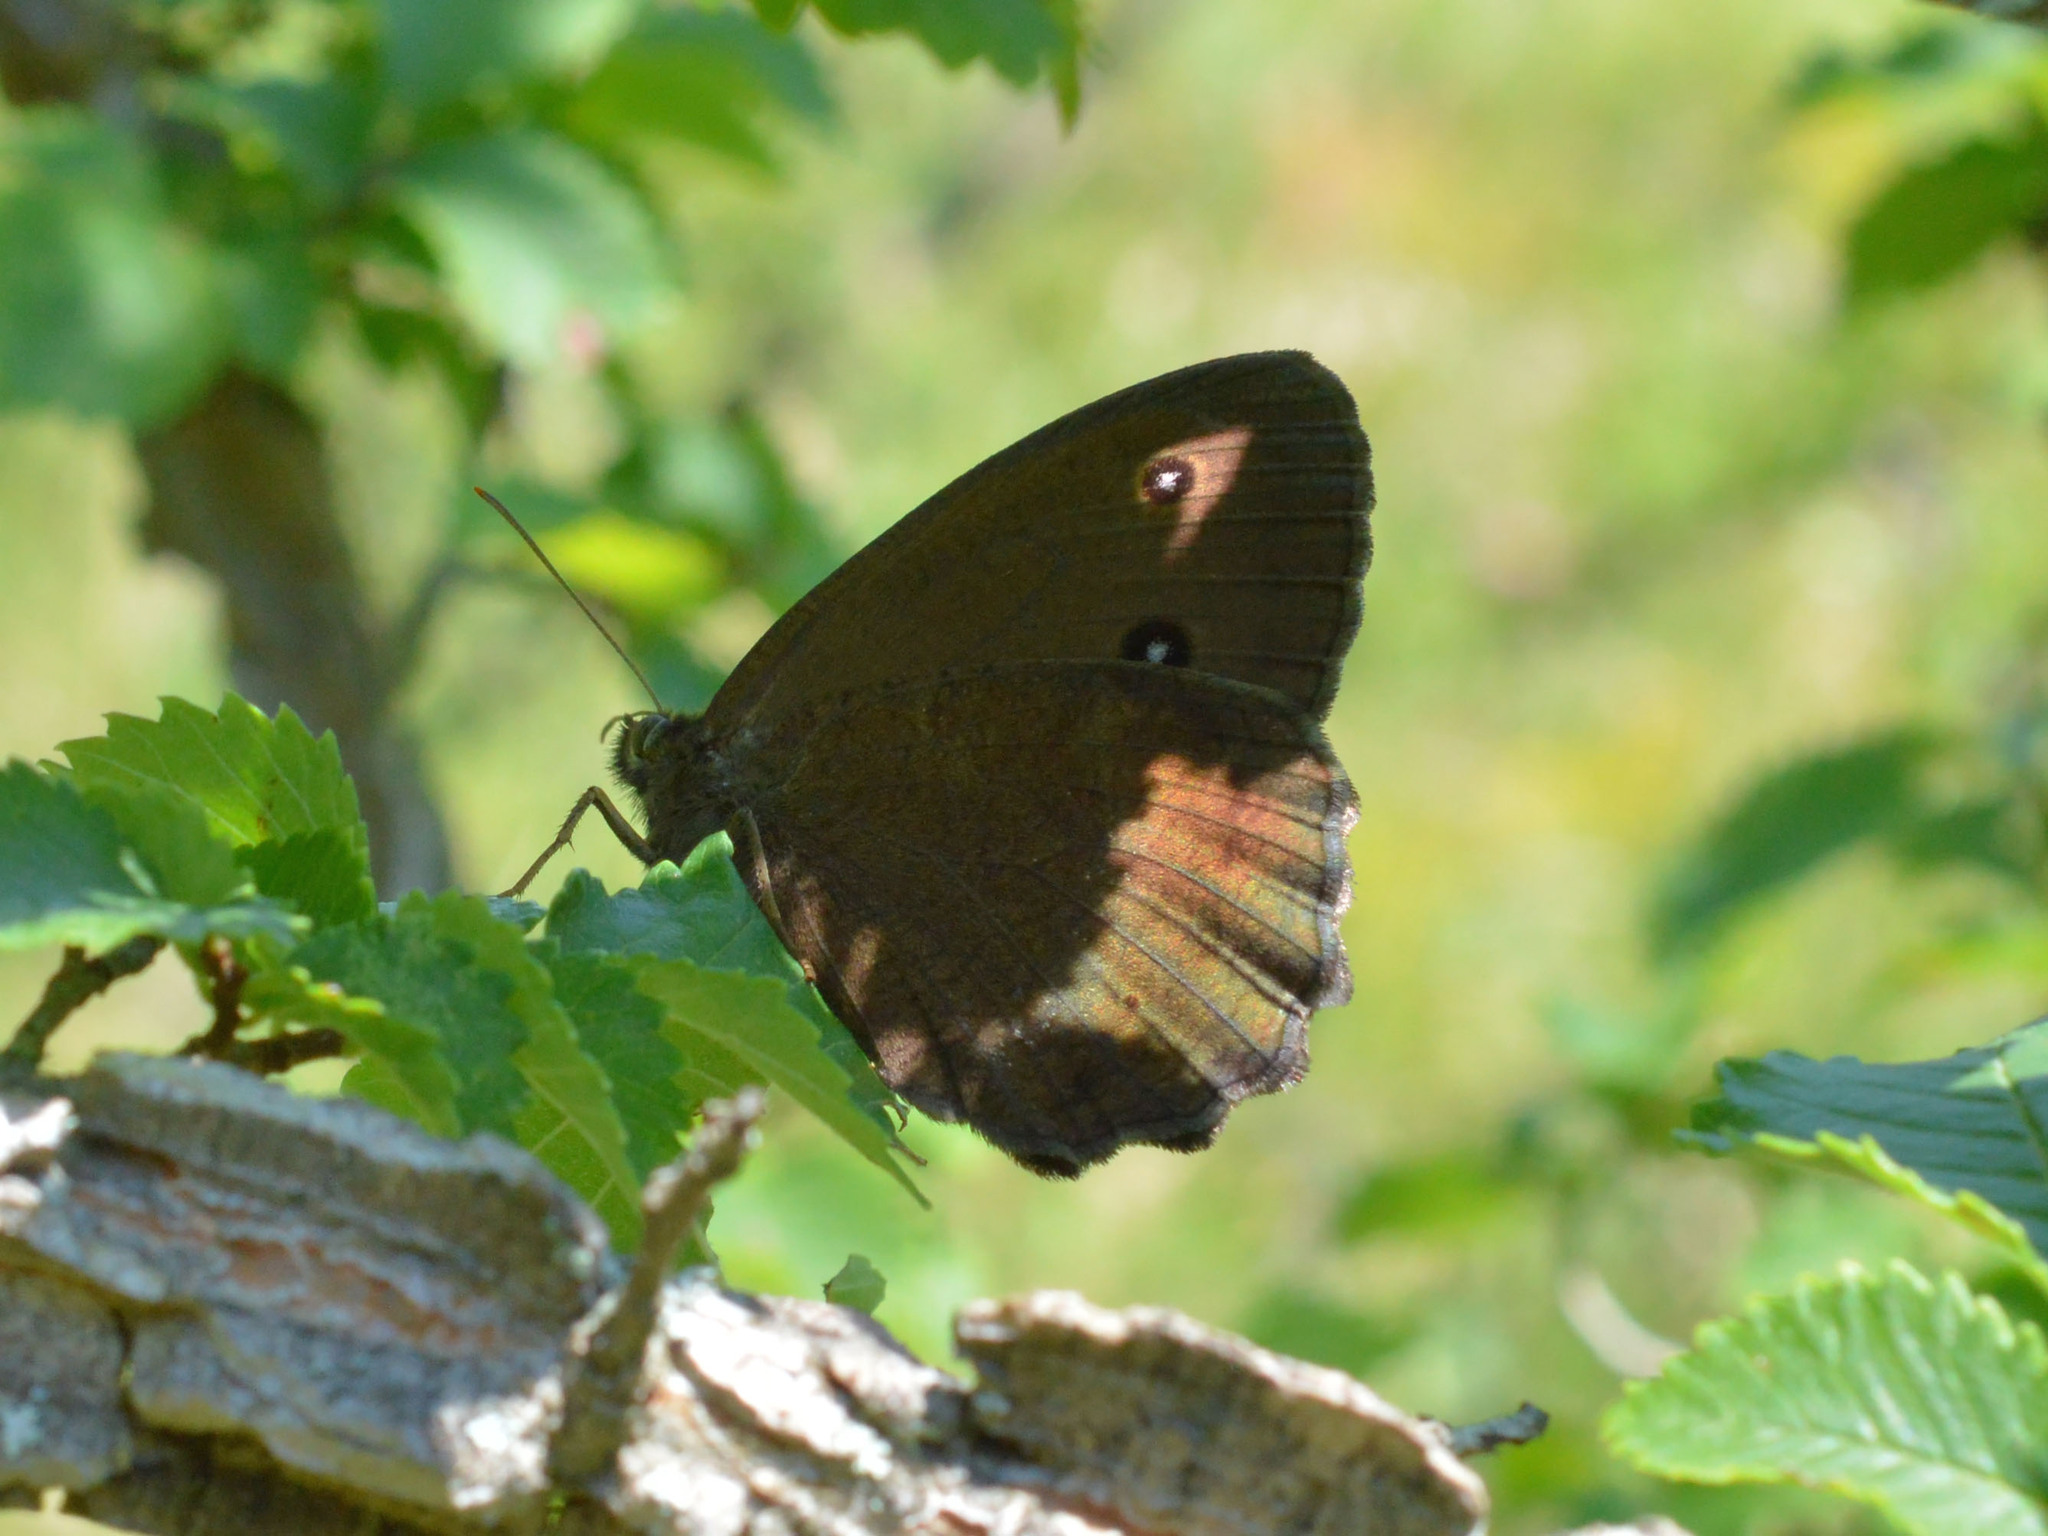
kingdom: Animalia
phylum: Arthropoda
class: Insecta
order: Lepidoptera
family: Nymphalidae
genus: Minois
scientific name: Minois dryas
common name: Dryad
